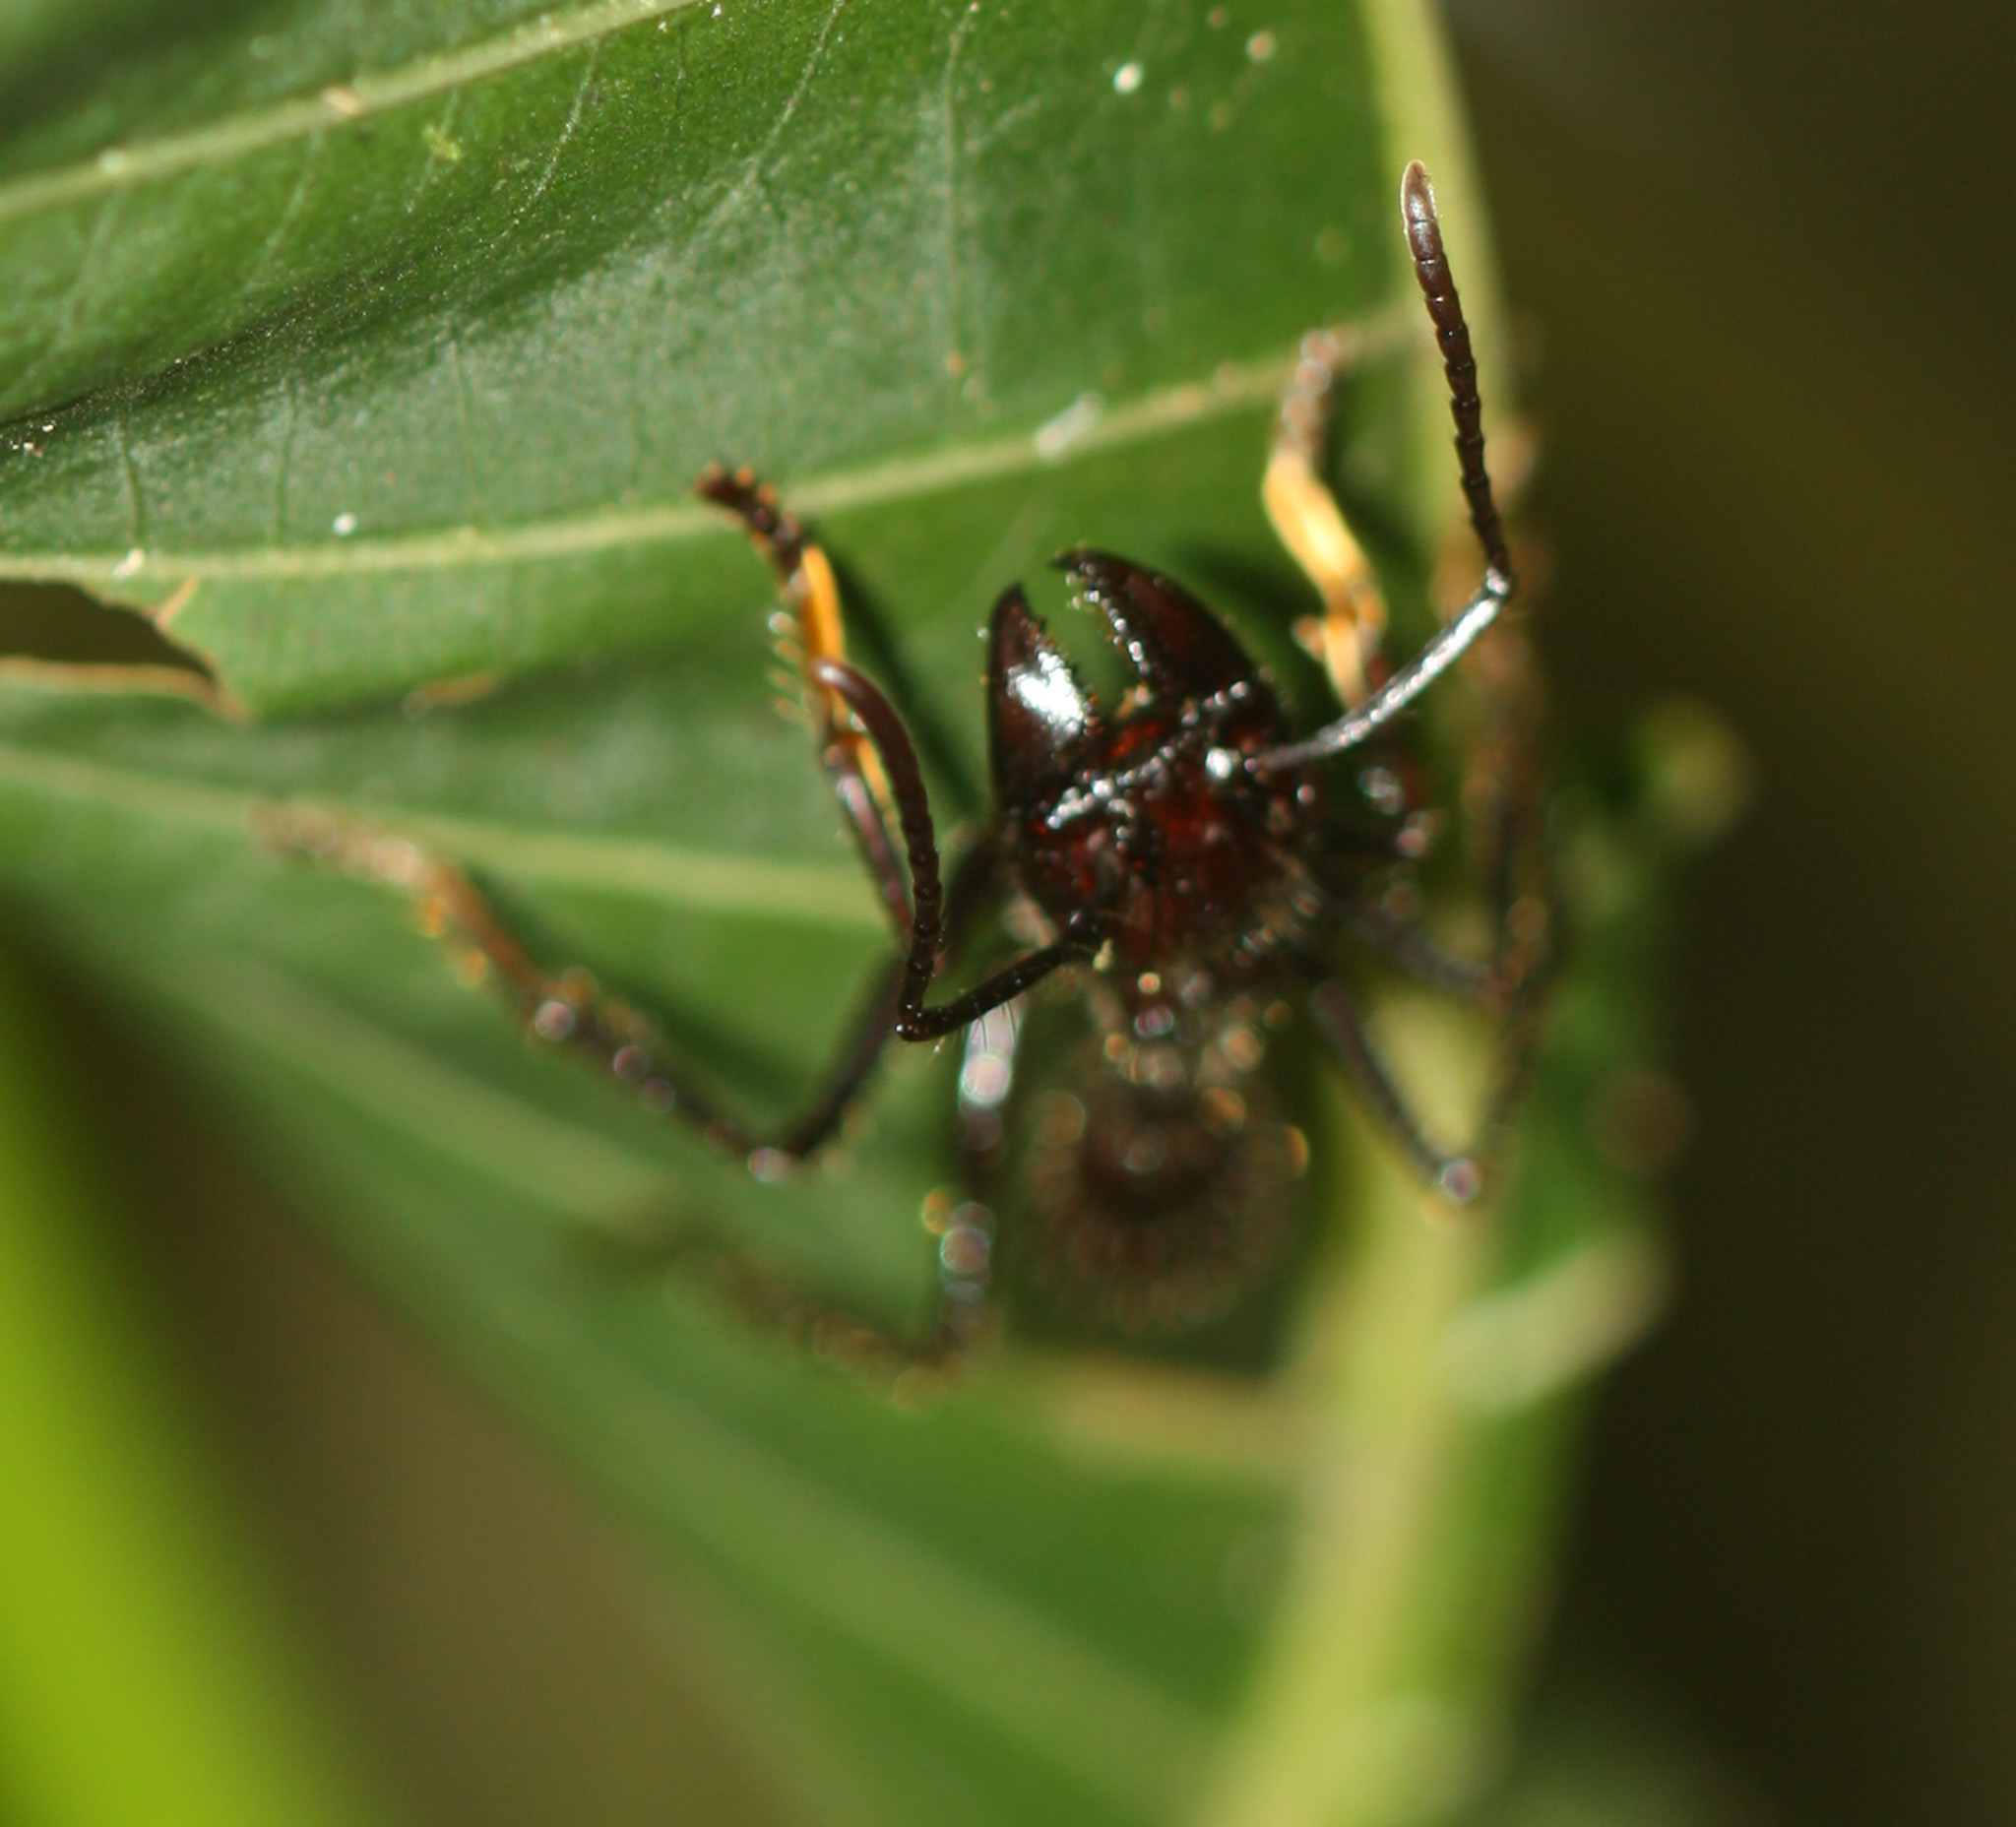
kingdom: Animalia
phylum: Arthropoda
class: Insecta
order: Hymenoptera
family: Formicidae
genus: Paraponera
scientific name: Paraponera clavata
